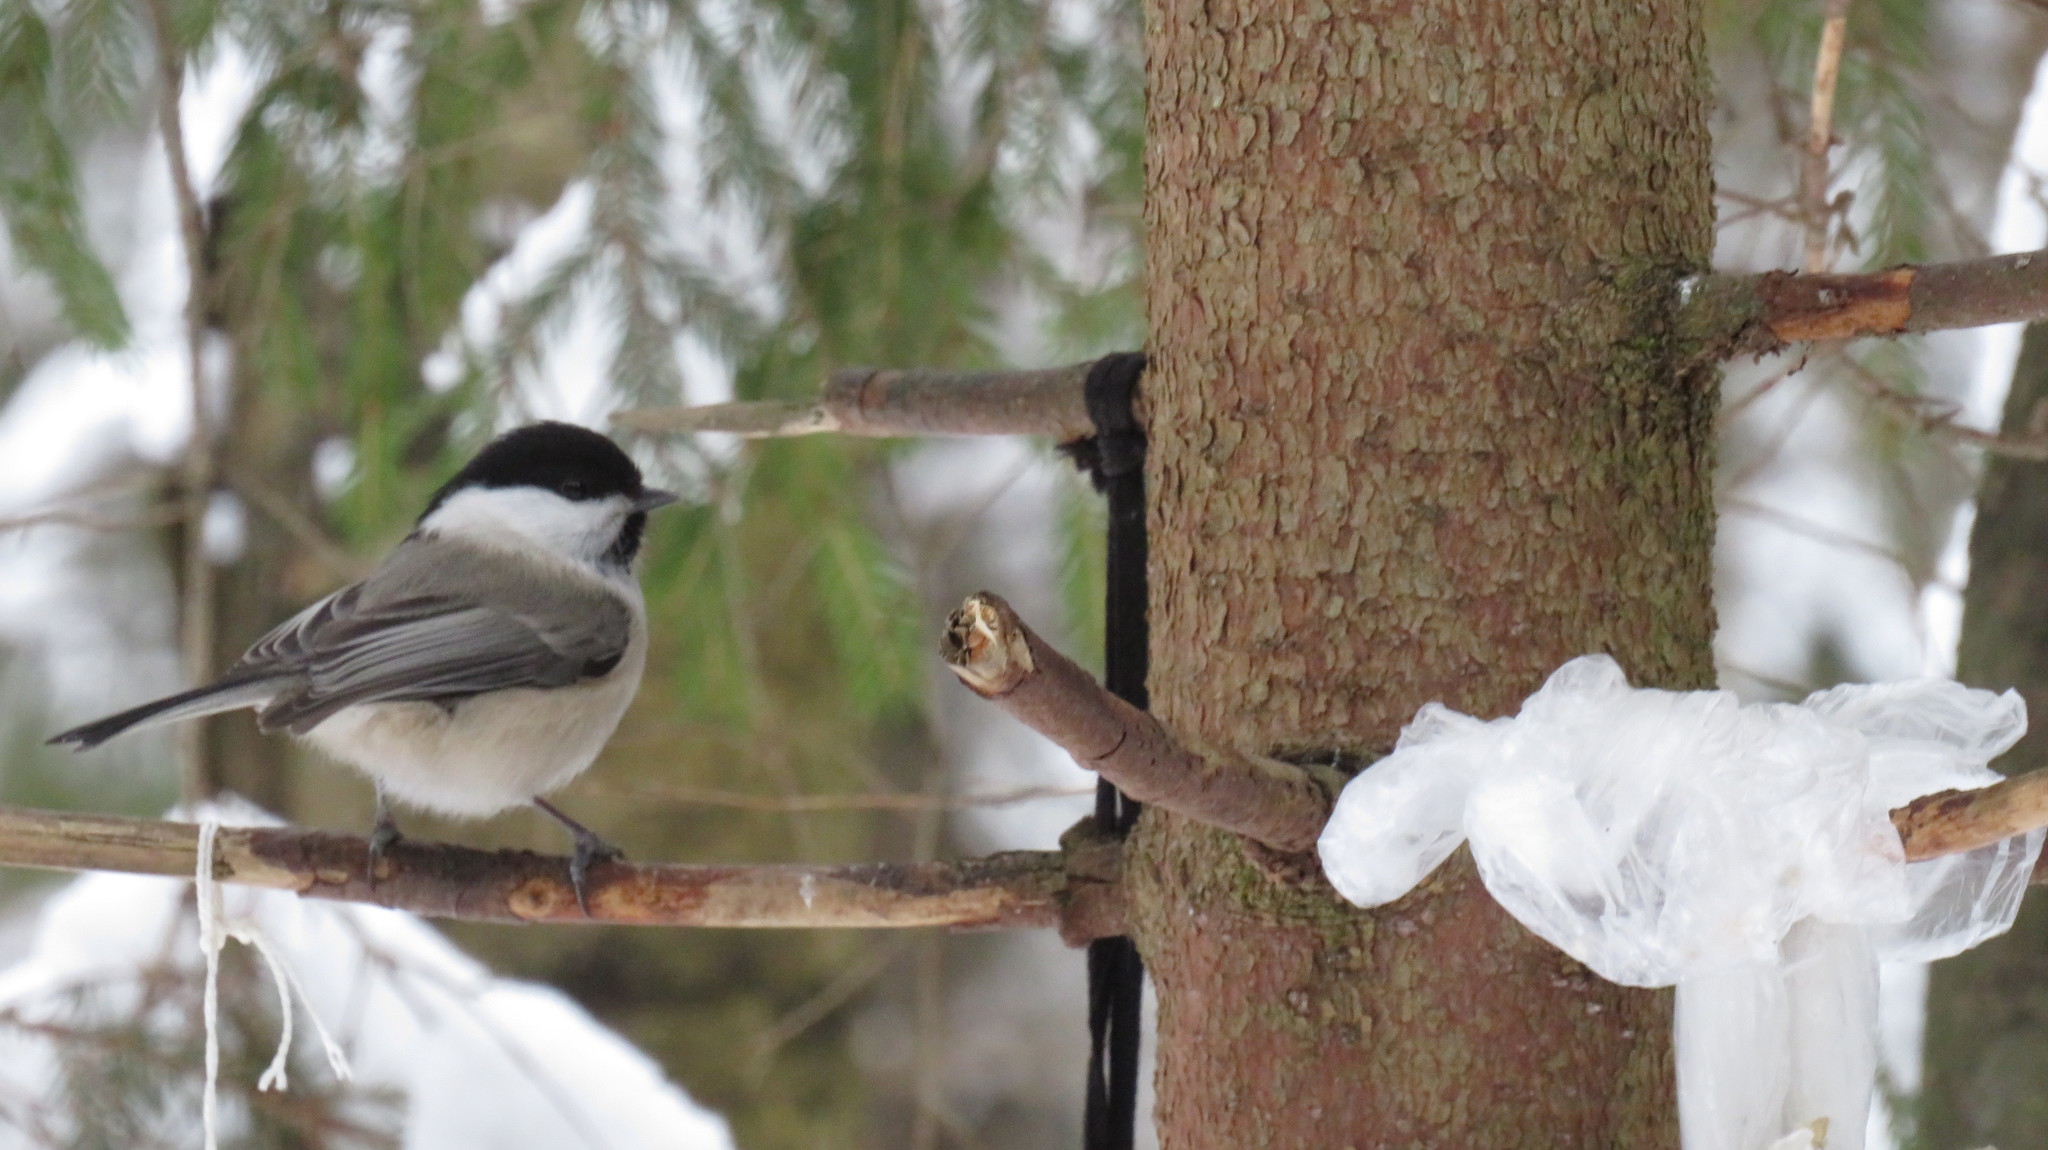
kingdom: Animalia
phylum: Chordata
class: Aves
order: Passeriformes
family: Paridae
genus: Poecile
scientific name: Poecile montanus
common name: Willow tit
